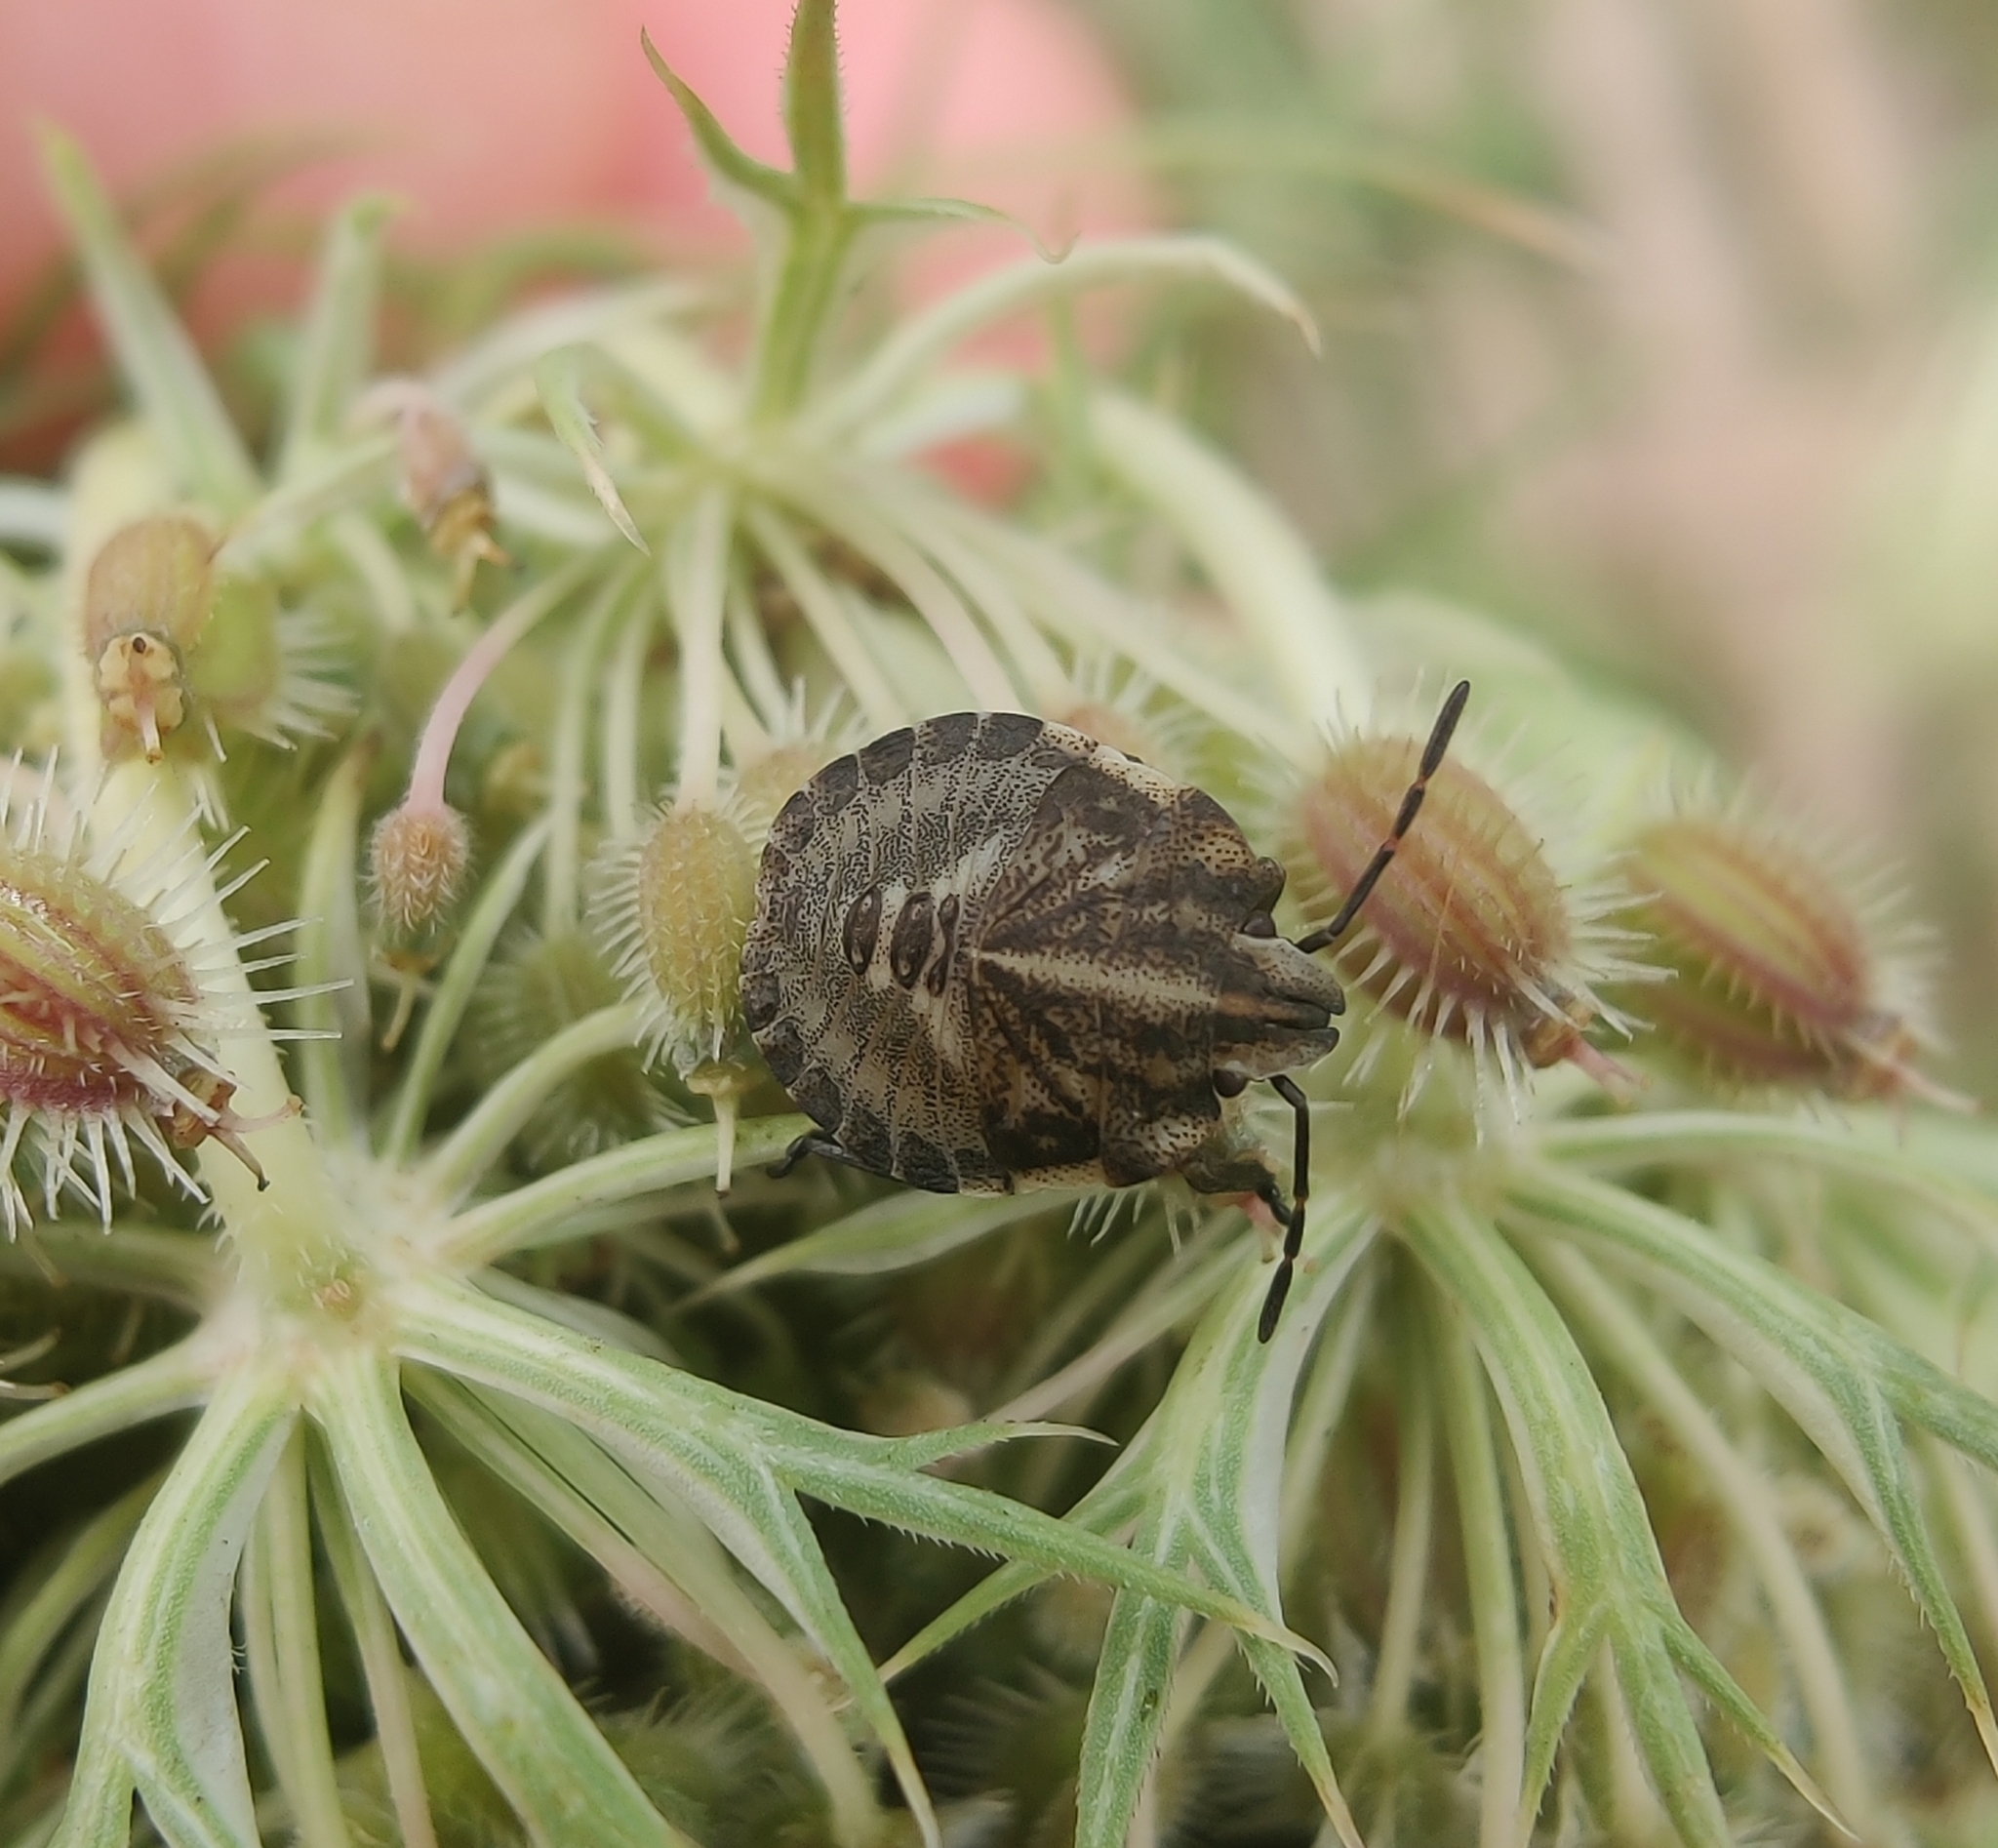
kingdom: Animalia
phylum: Arthropoda
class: Insecta
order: Hemiptera
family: Pentatomidae
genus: Graphosoma
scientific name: Graphosoma italicum
